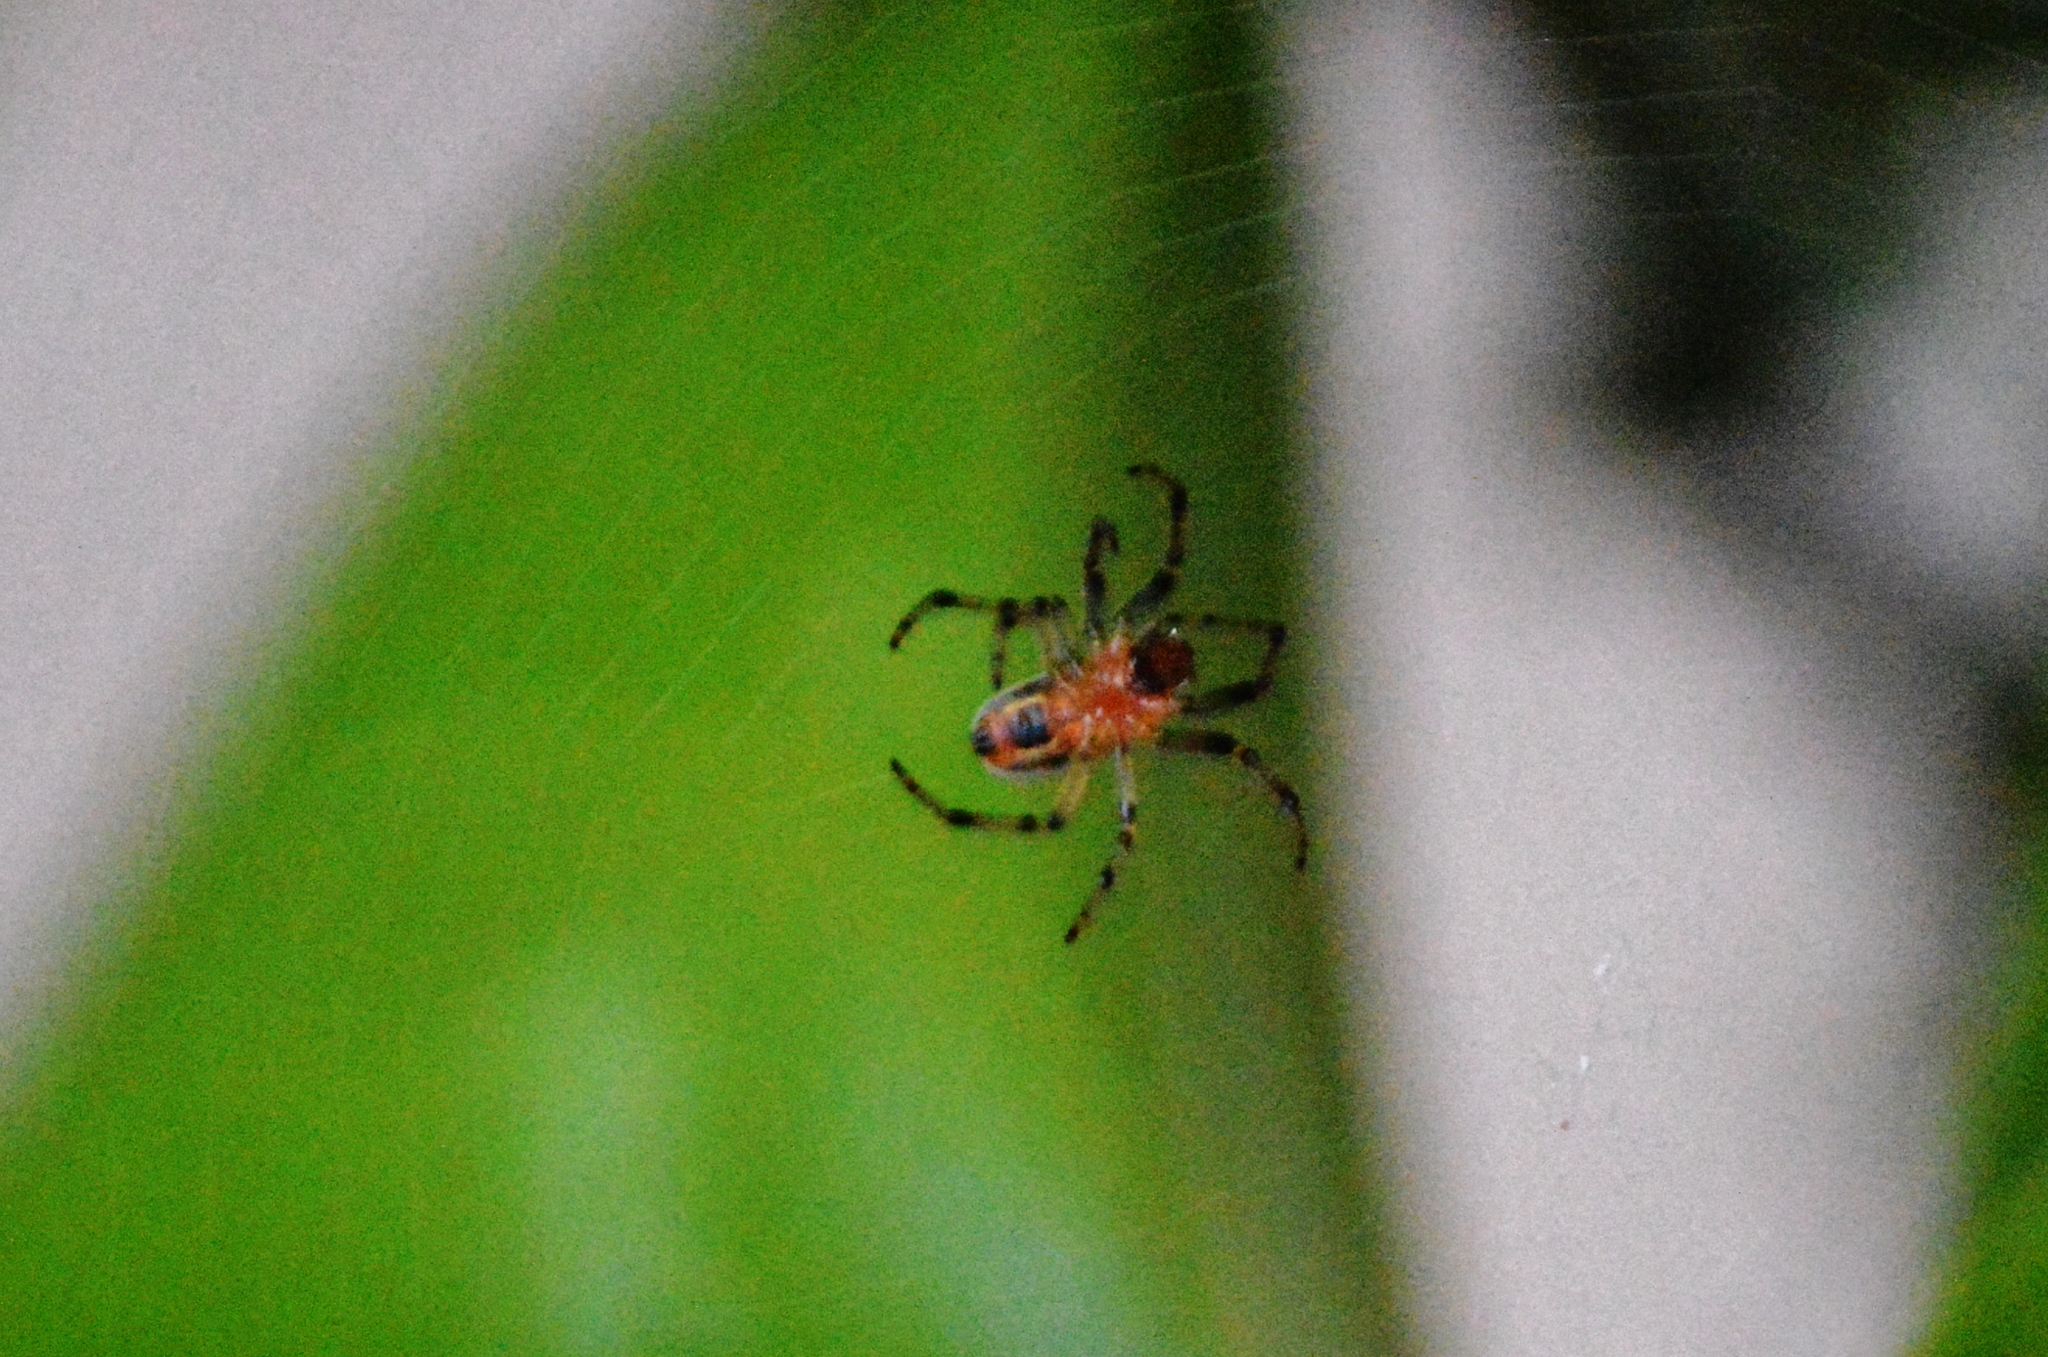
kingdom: Animalia
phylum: Arthropoda
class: Arachnida
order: Araneae
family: Araneidae
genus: Alpaida
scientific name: Alpaida veniliae
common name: Orb weavers
